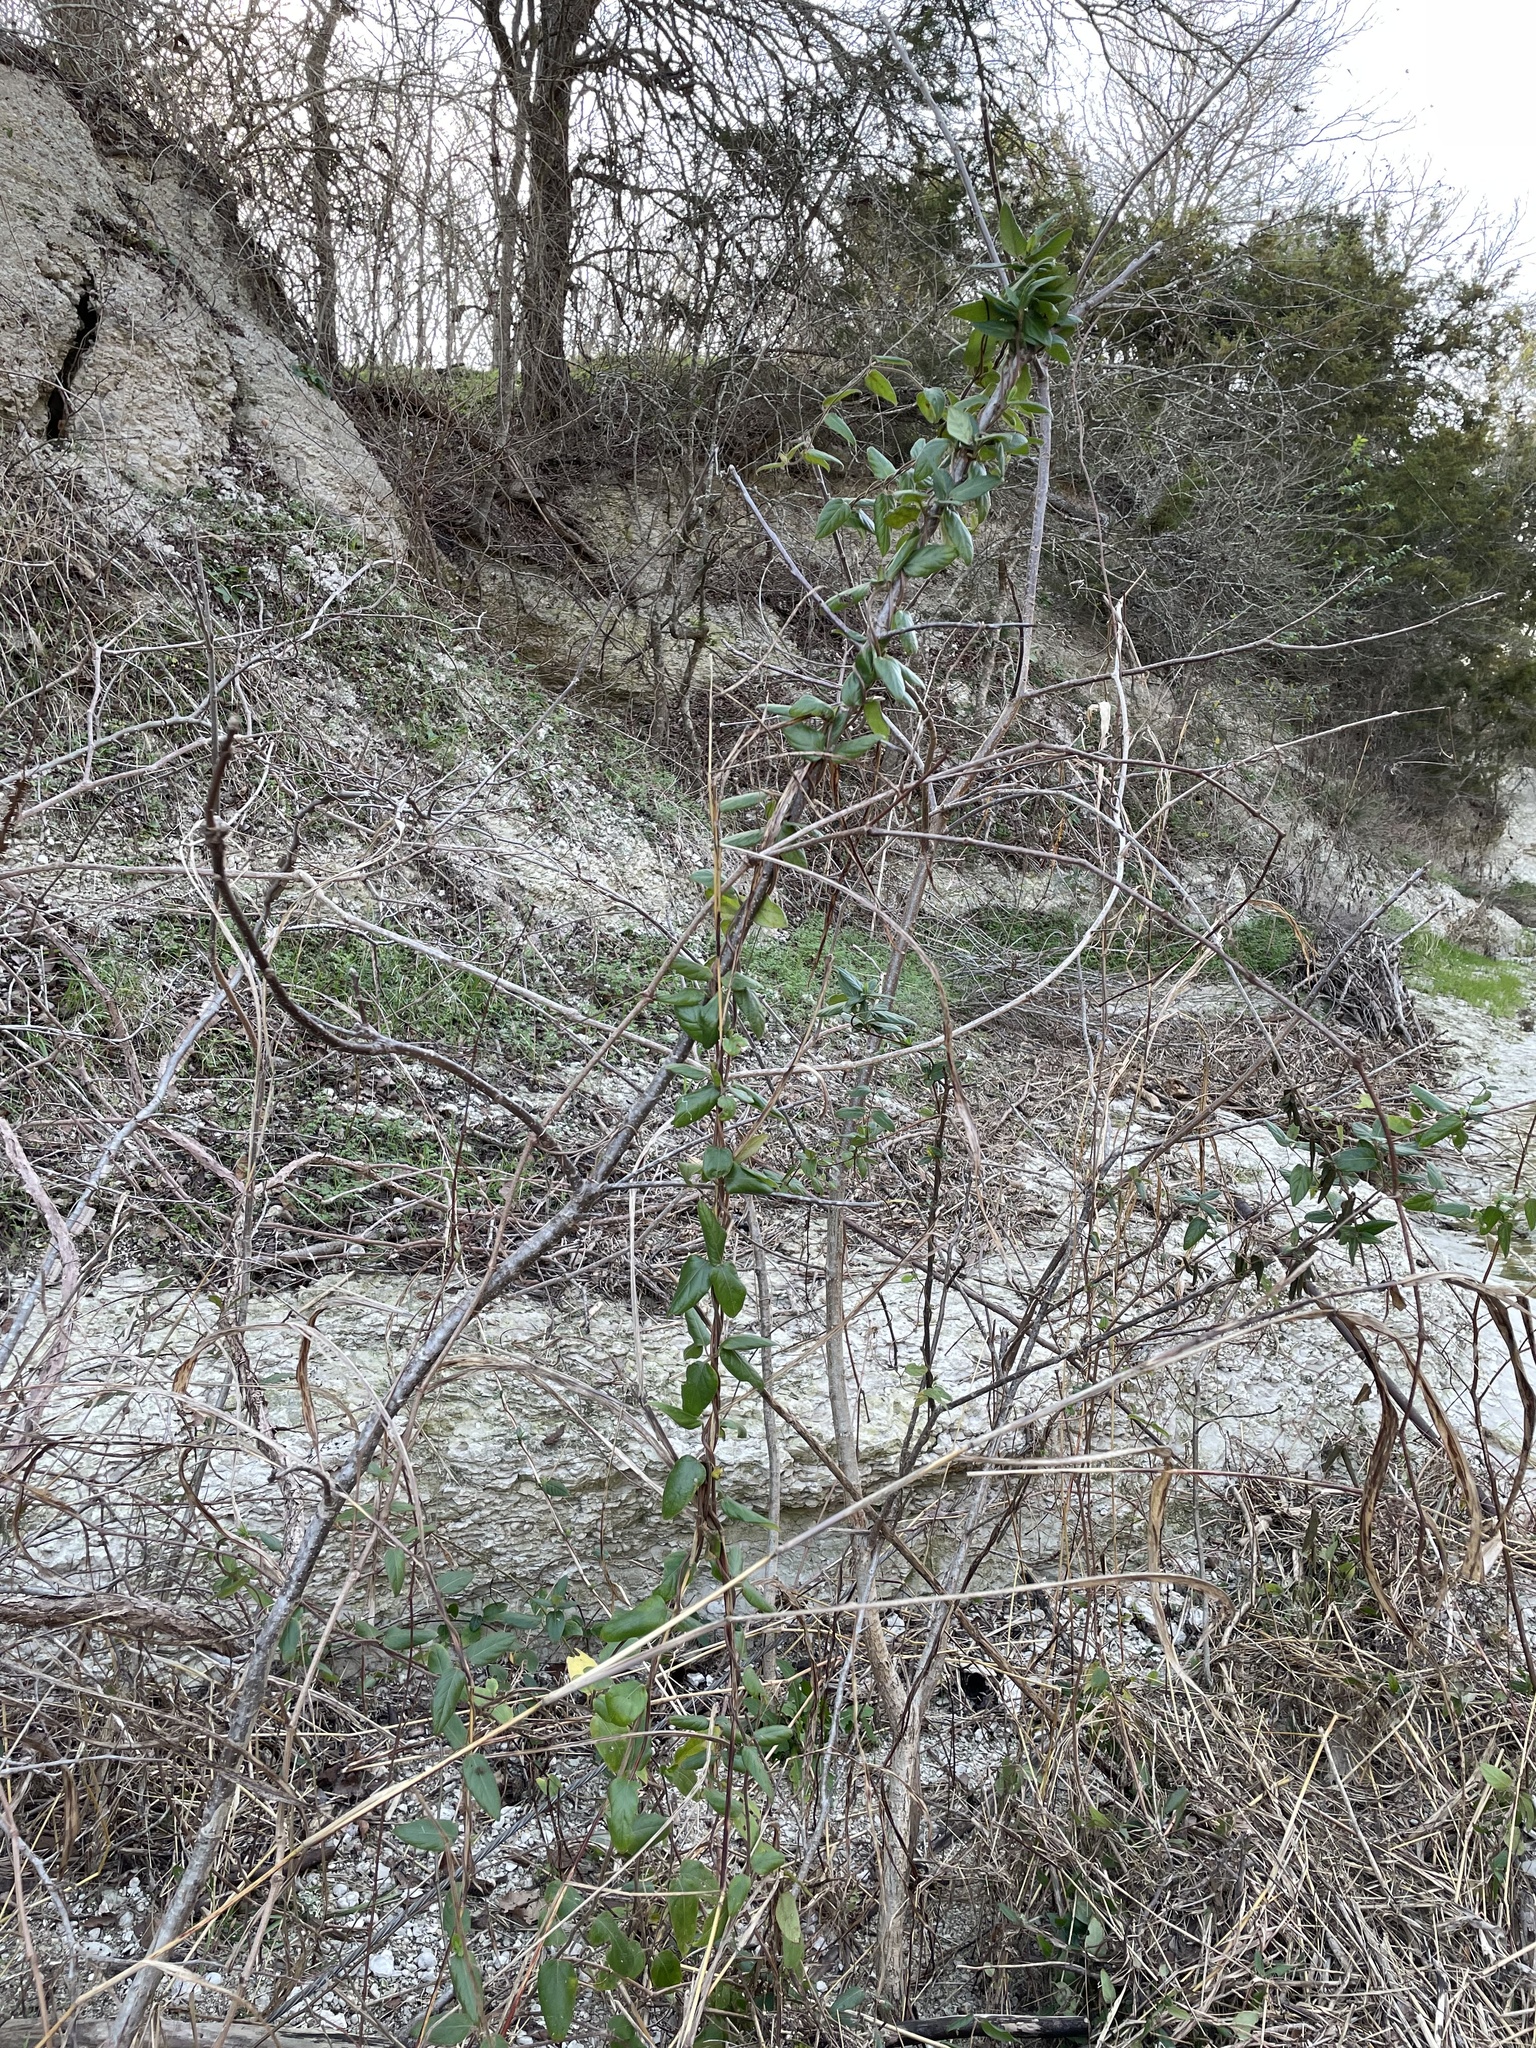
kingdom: Plantae
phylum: Tracheophyta
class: Magnoliopsida
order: Dipsacales
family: Caprifoliaceae
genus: Lonicera
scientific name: Lonicera japonica
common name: Japanese honeysuckle
